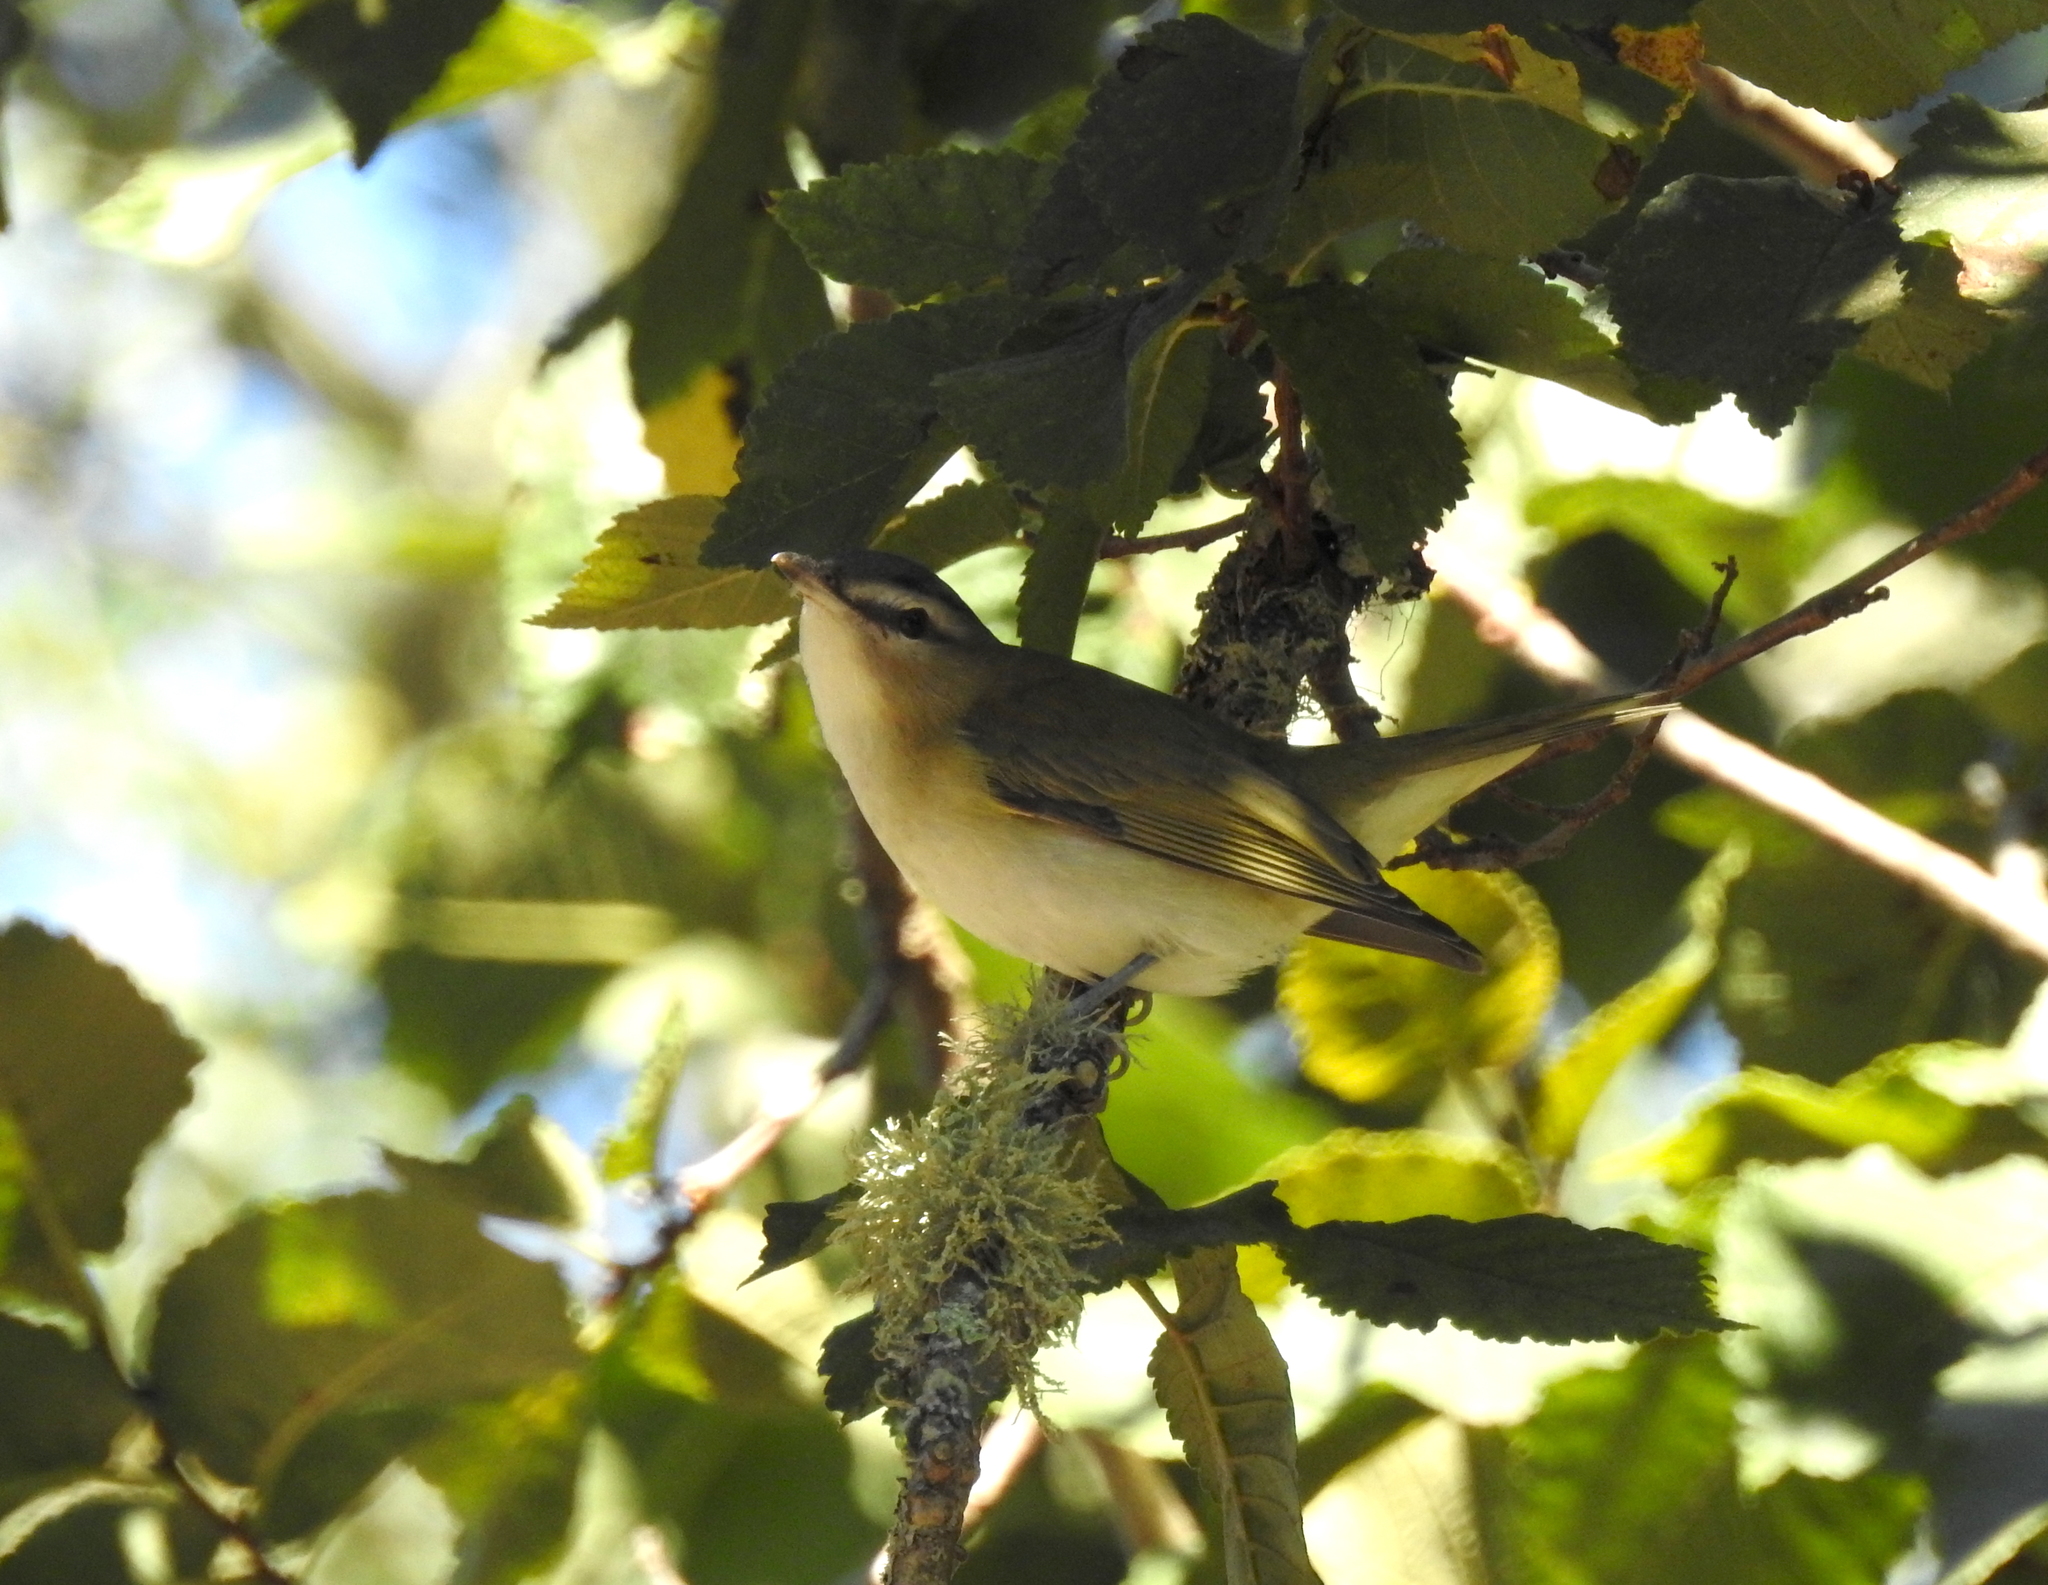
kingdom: Animalia
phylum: Chordata
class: Aves
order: Passeriformes
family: Vireonidae
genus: Vireo
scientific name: Vireo olivaceus
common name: Red-eyed vireo
